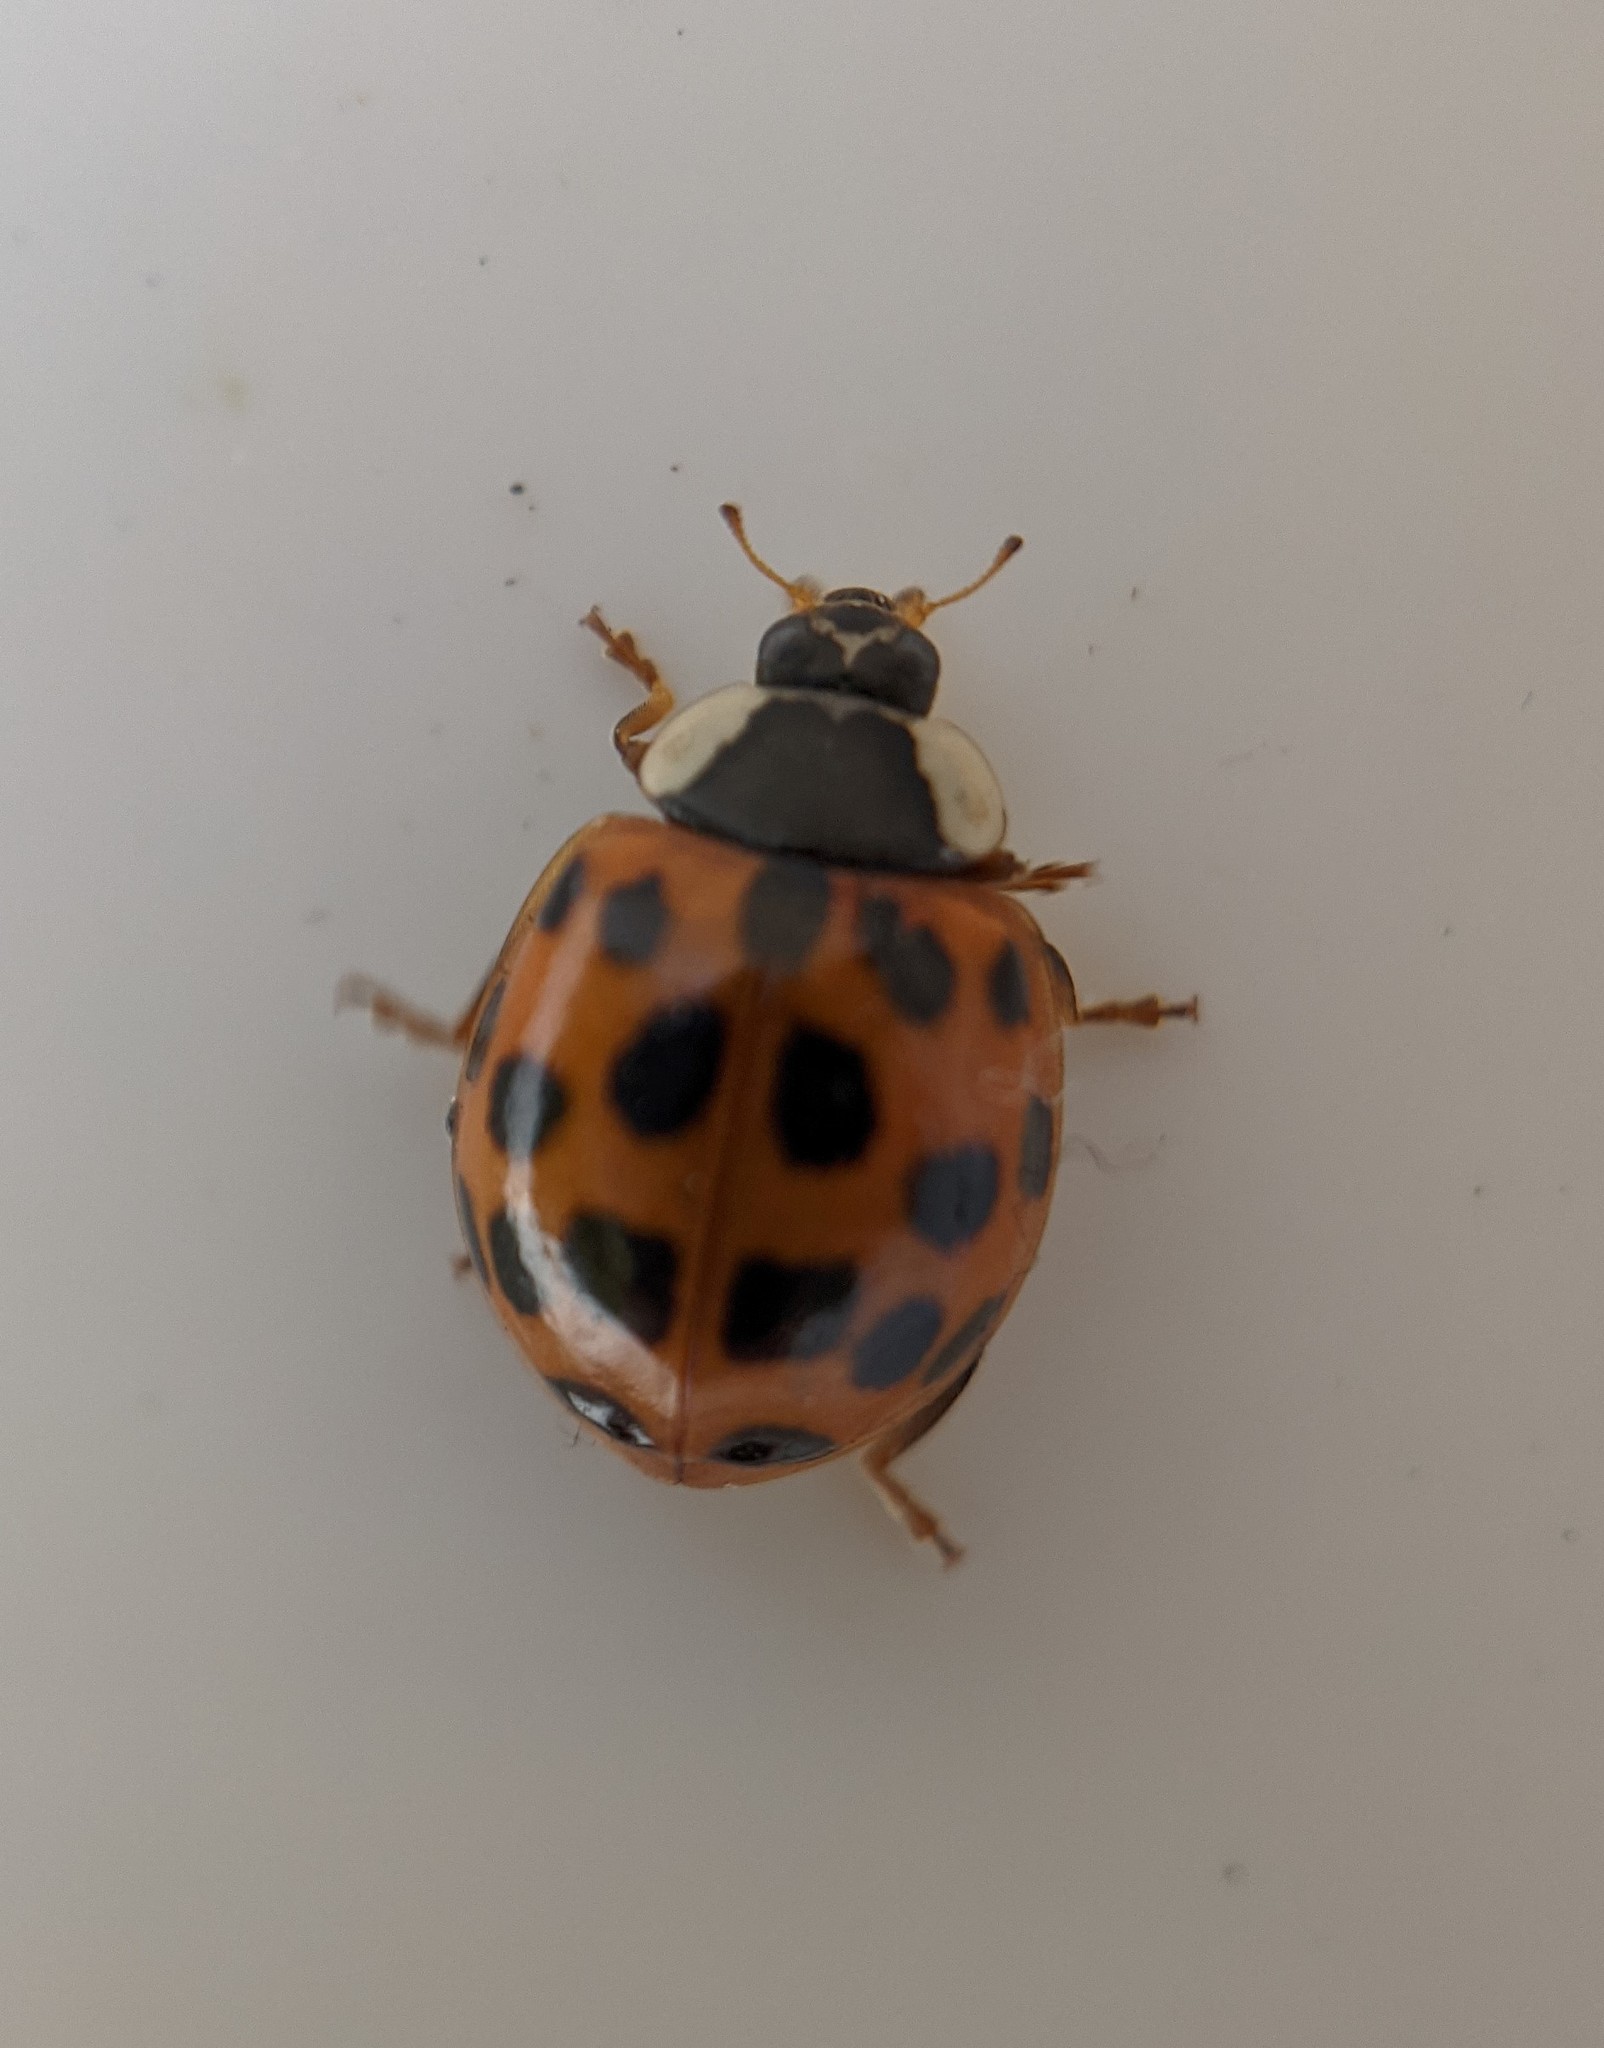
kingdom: Animalia
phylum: Arthropoda
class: Insecta
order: Coleoptera
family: Coccinellidae
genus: Harmonia
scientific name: Harmonia axyridis
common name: Harlequin ladybird
